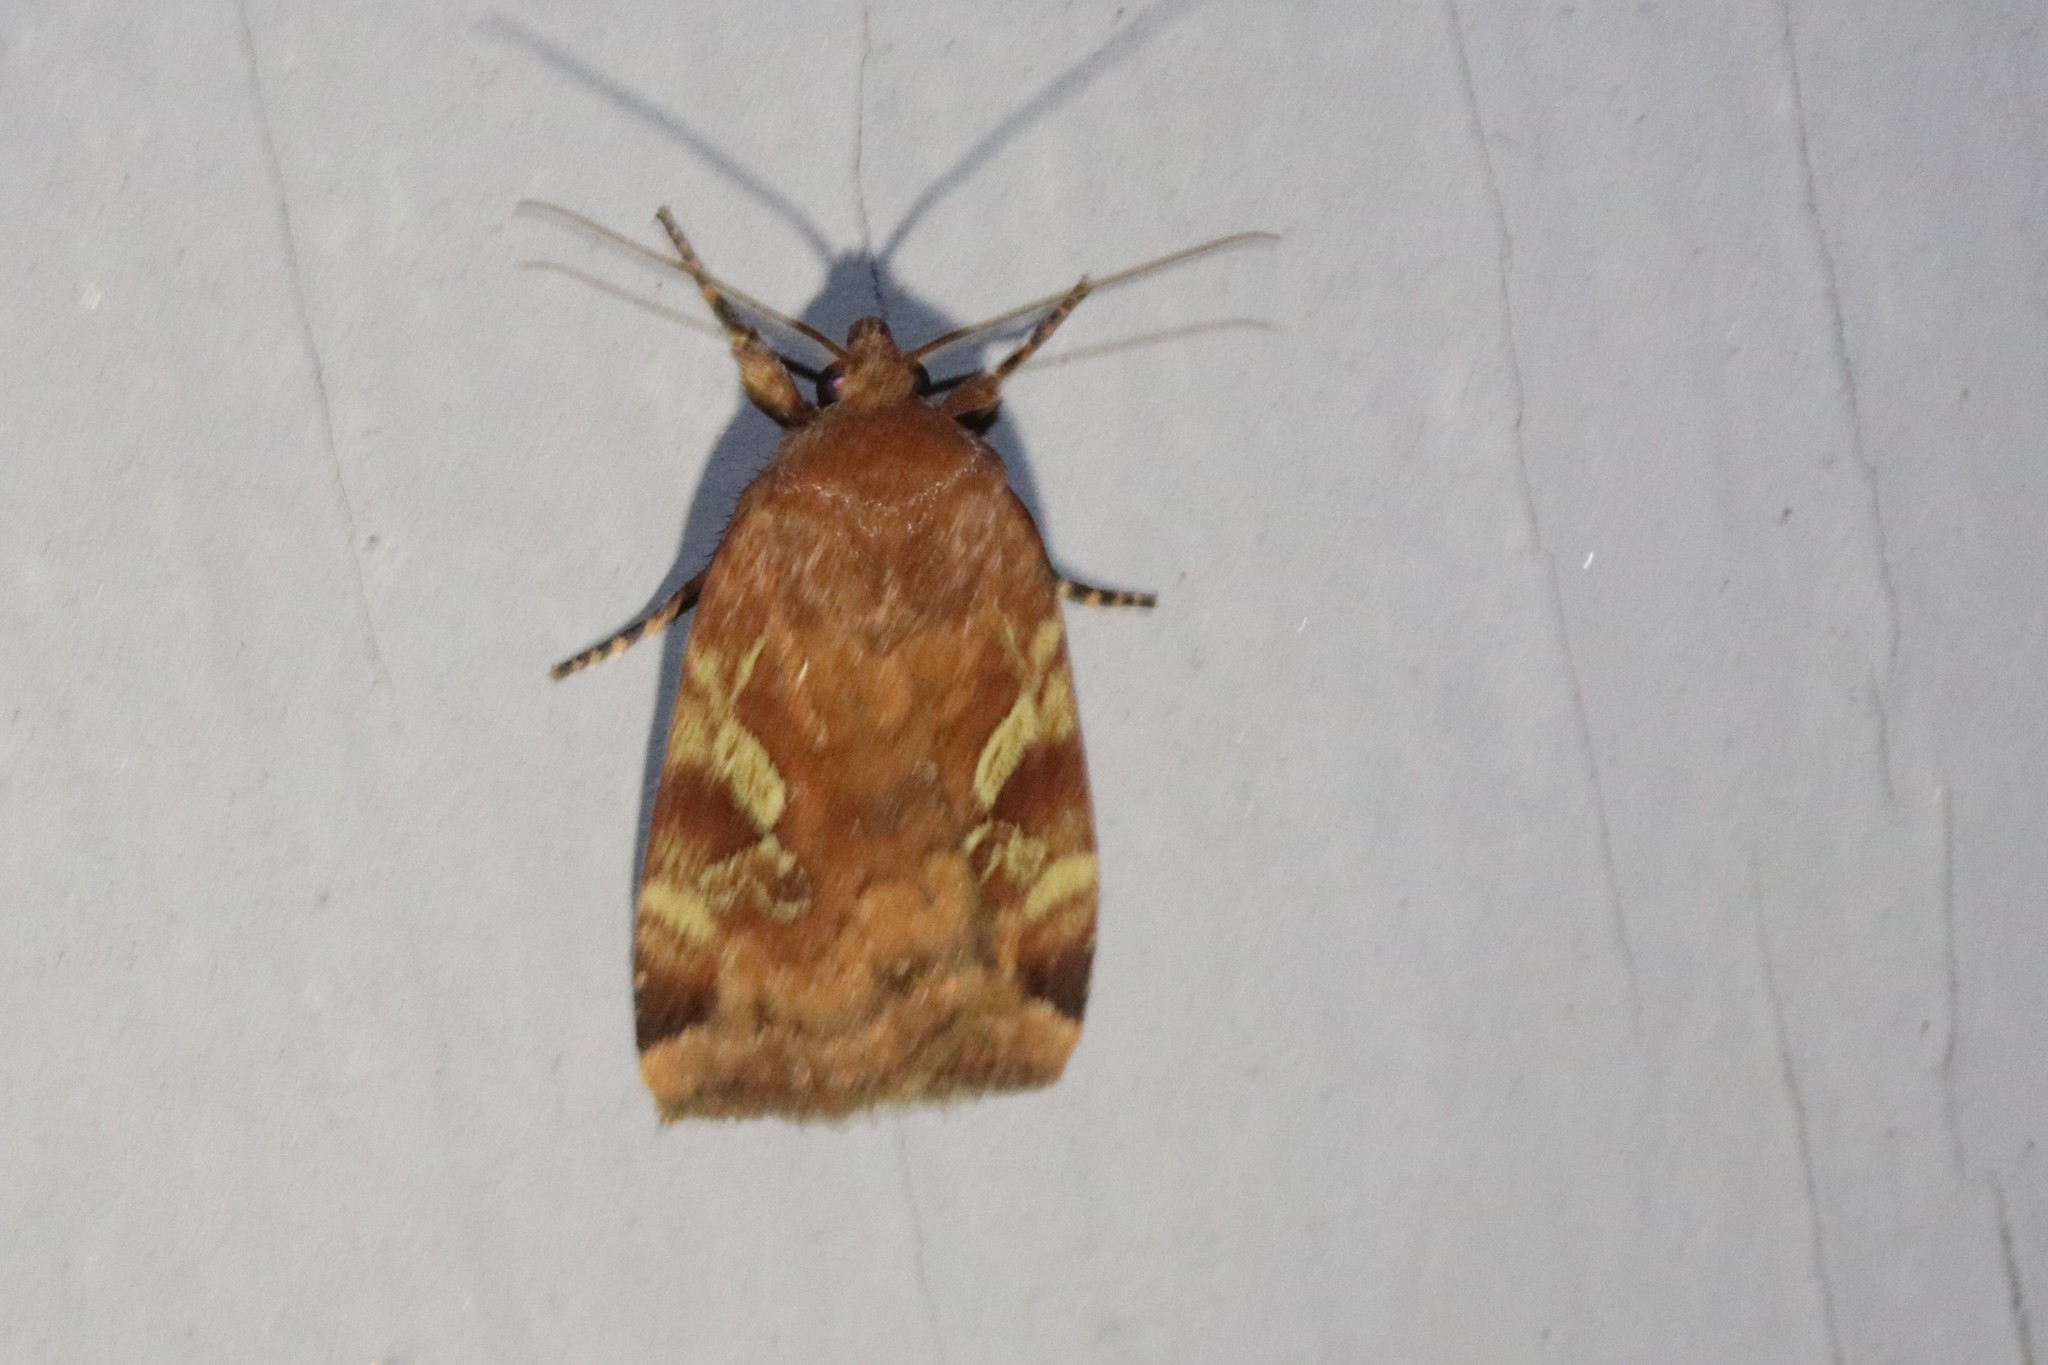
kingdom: Animalia
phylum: Arthropoda
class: Insecta
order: Lepidoptera
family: Noctuidae
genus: Cryptocala
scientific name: Cryptocala acadiensis
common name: Catocaline dart
